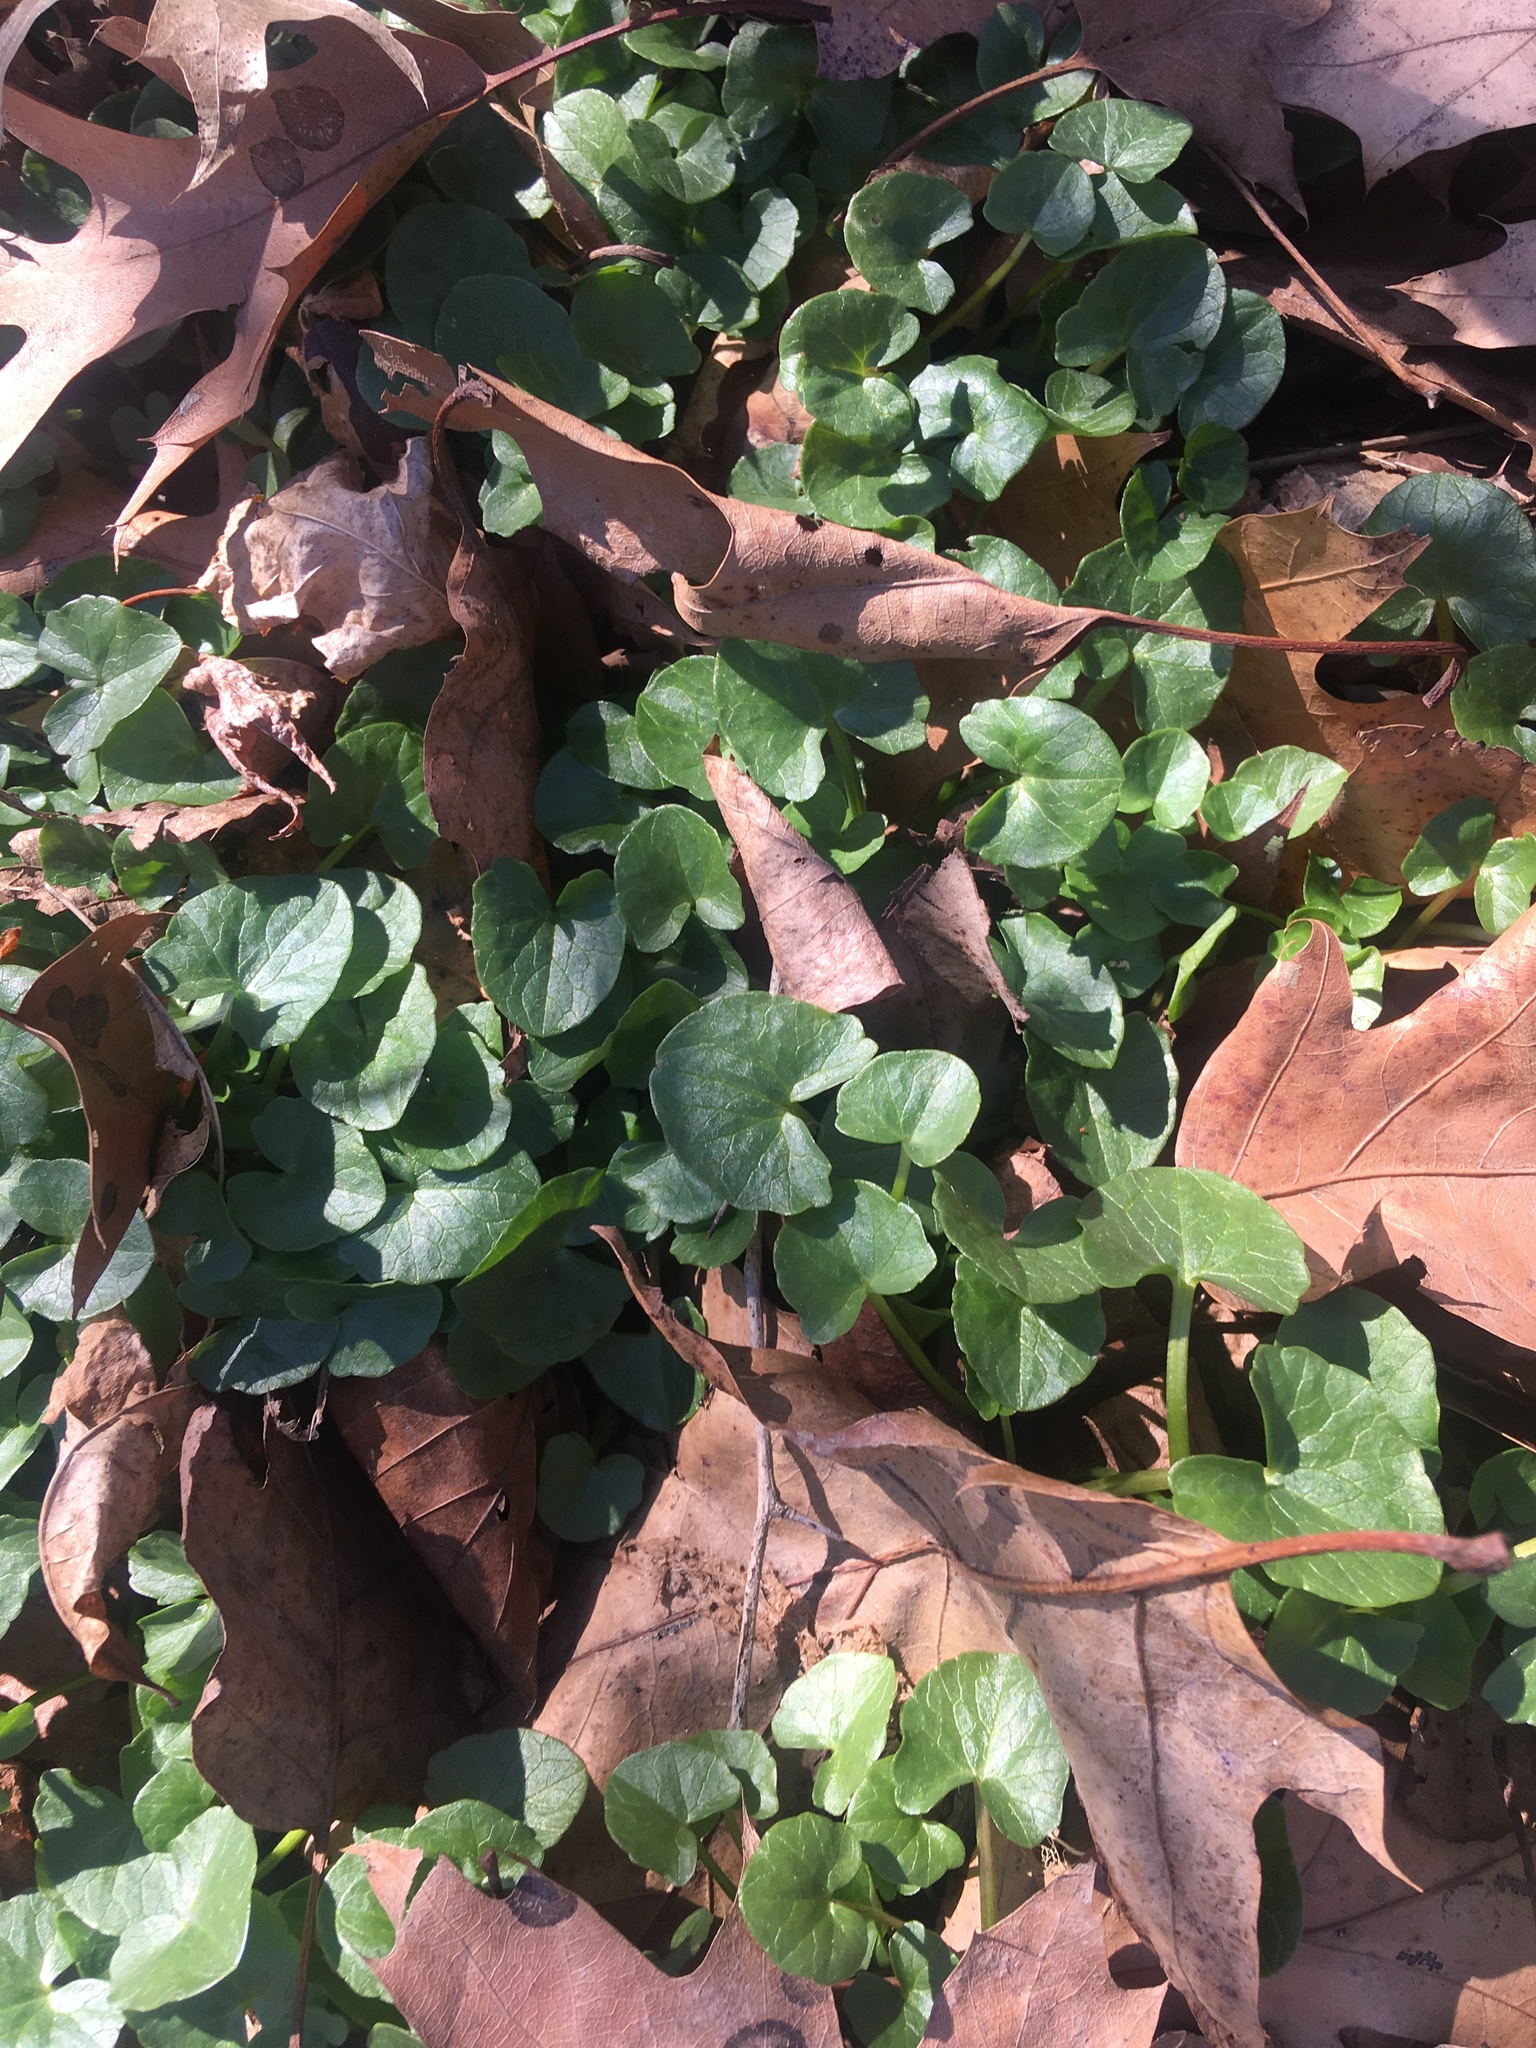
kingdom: Plantae
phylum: Tracheophyta
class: Magnoliopsida
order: Ranunculales
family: Ranunculaceae
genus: Ficaria
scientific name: Ficaria verna
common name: Lesser celandine
